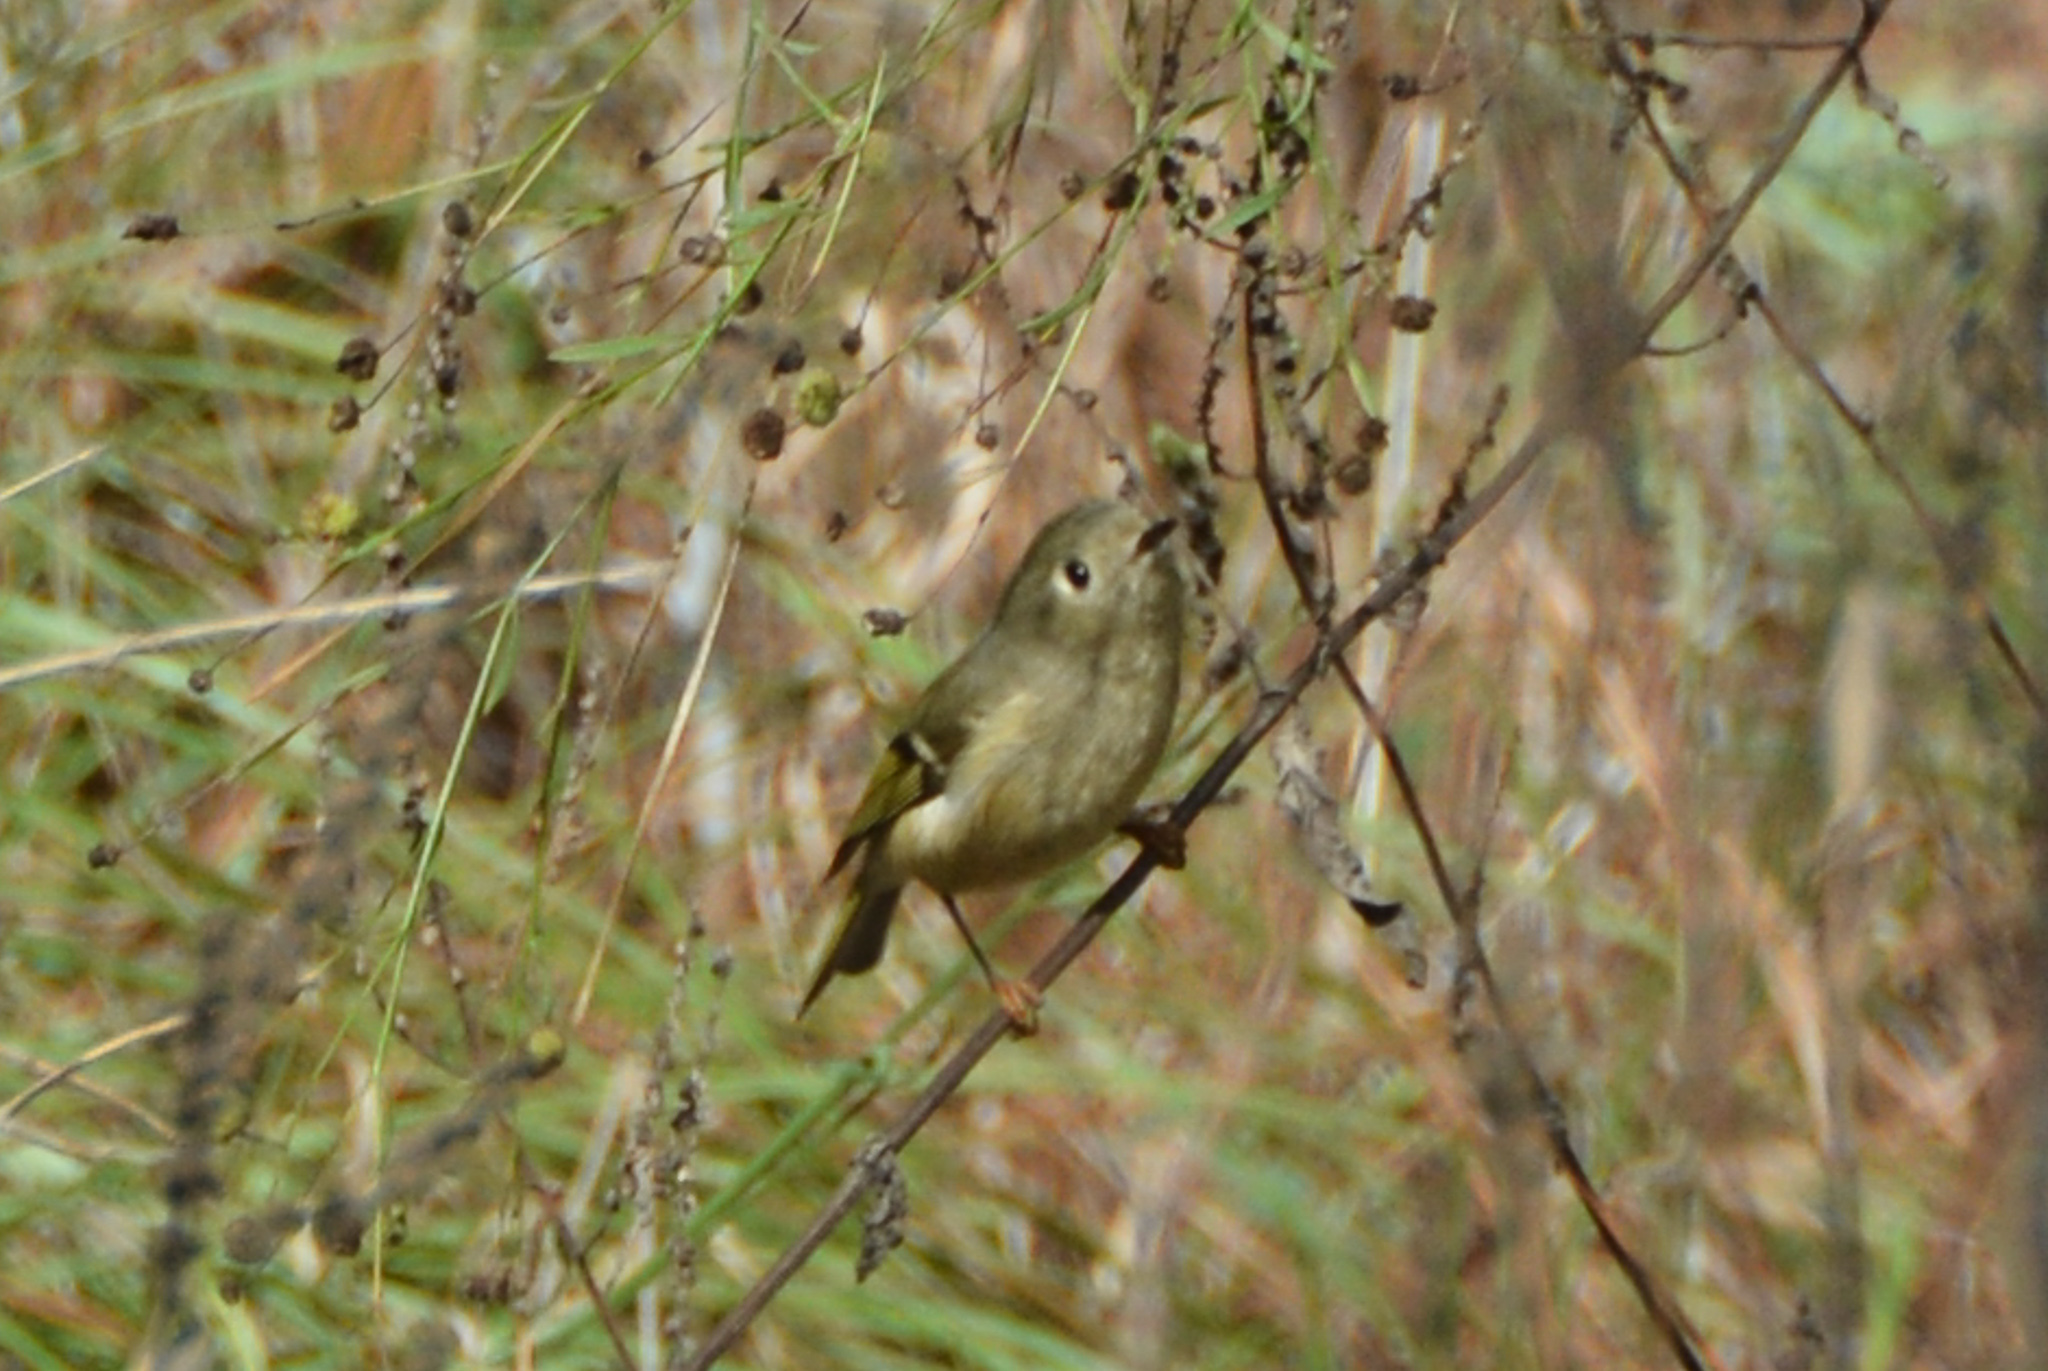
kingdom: Animalia
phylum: Chordata
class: Aves
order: Passeriformes
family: Regulidae
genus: Regulus
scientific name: Regulus calendula
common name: Ruby-crowned kinglet
